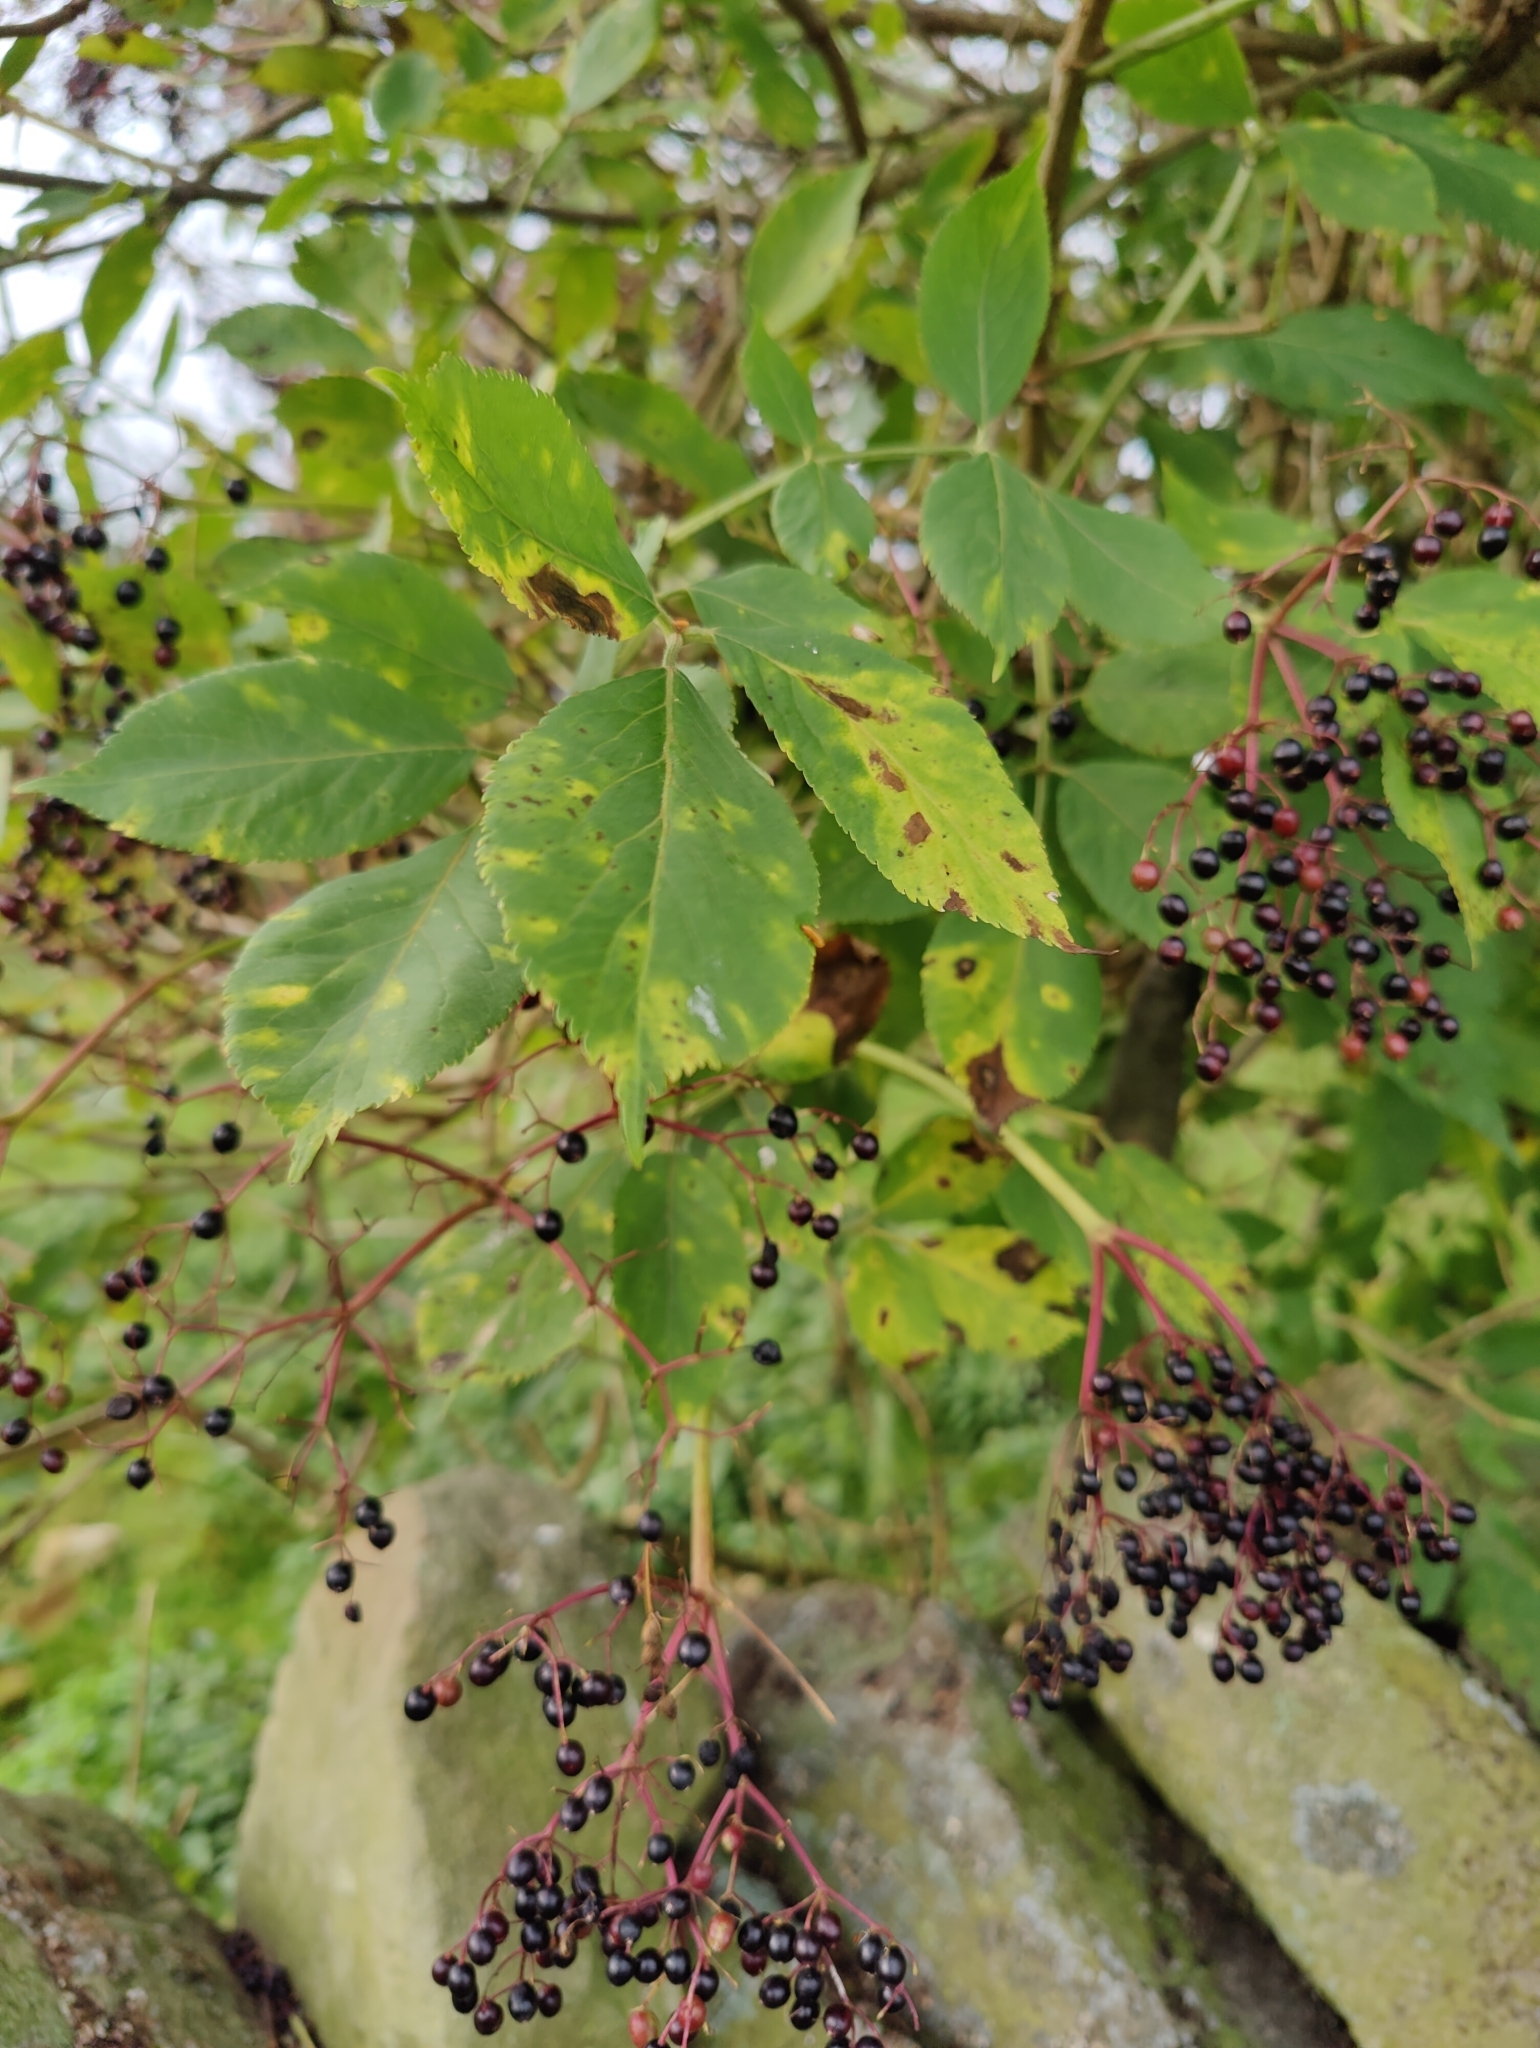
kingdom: Plantae
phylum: Tracheophyta
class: Magnoliopsida
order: Dipsacales
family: Viburnaceae
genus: Sambucus
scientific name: Sambucus nigra
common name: Elder
